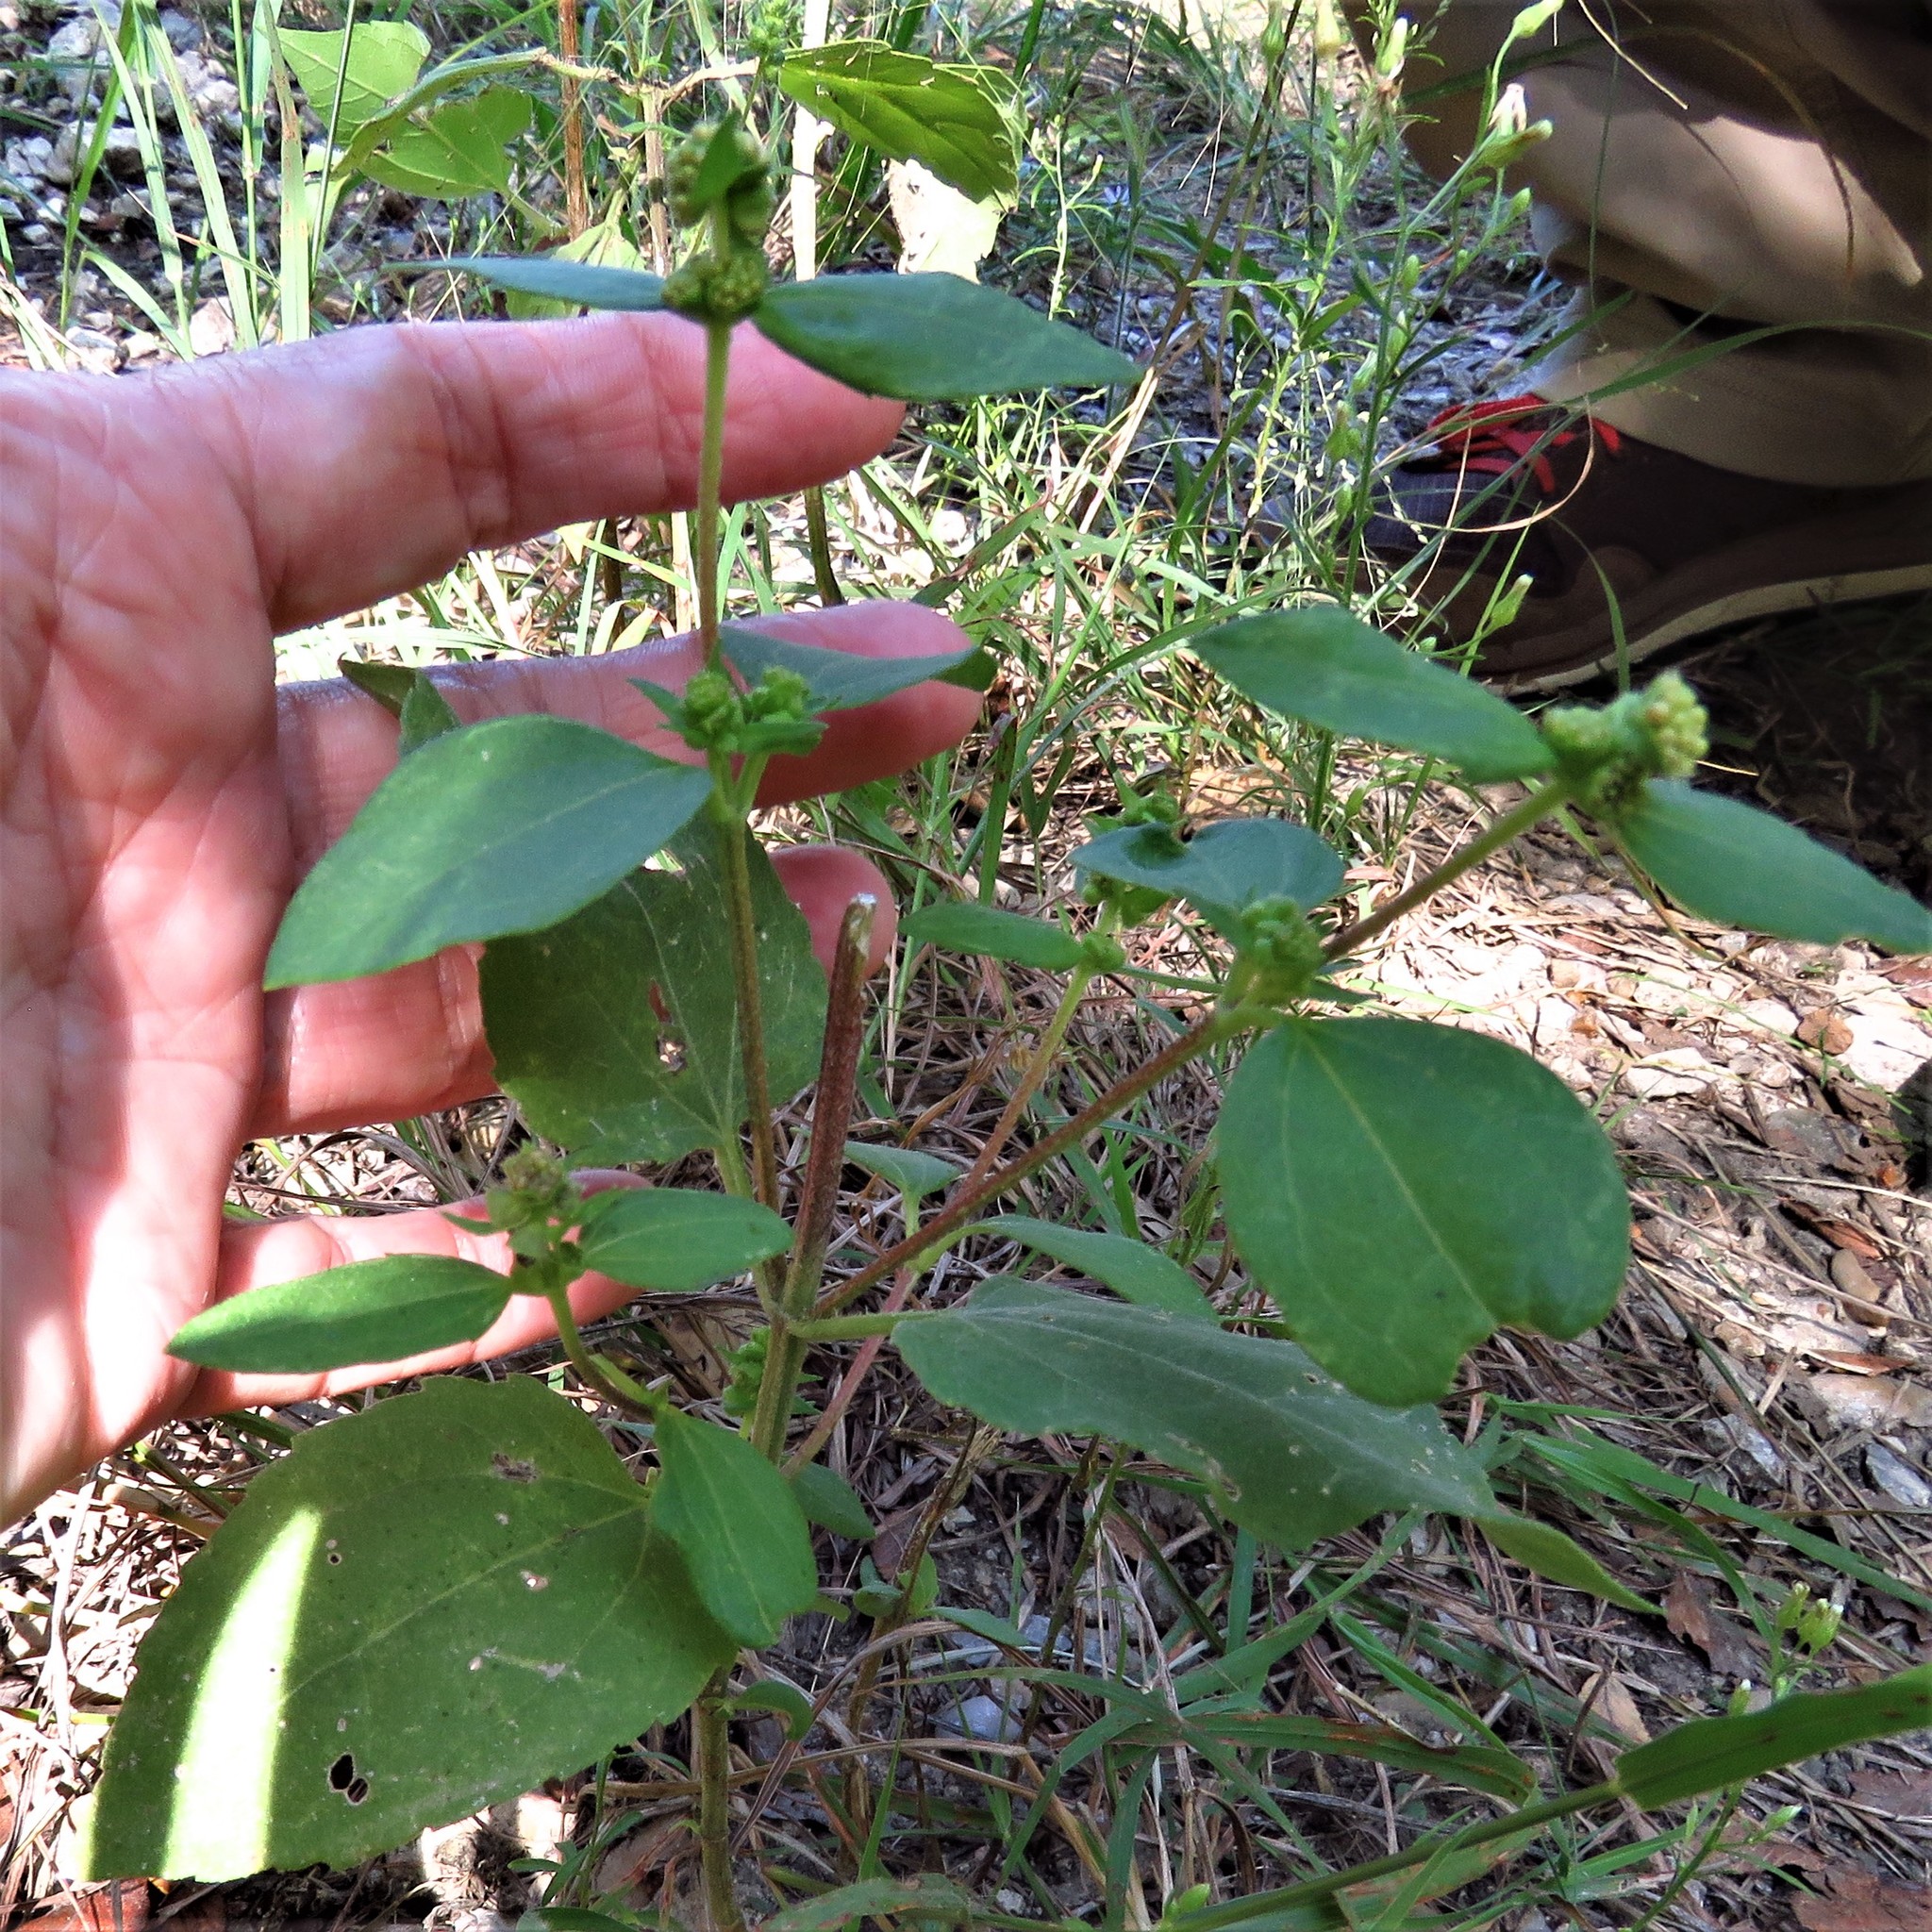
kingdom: Plantae
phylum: Tracheophyta
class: Magnoliopsida
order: Asterales
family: Asteraceae
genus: Iva
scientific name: Iva annua
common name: Marsh-elder
